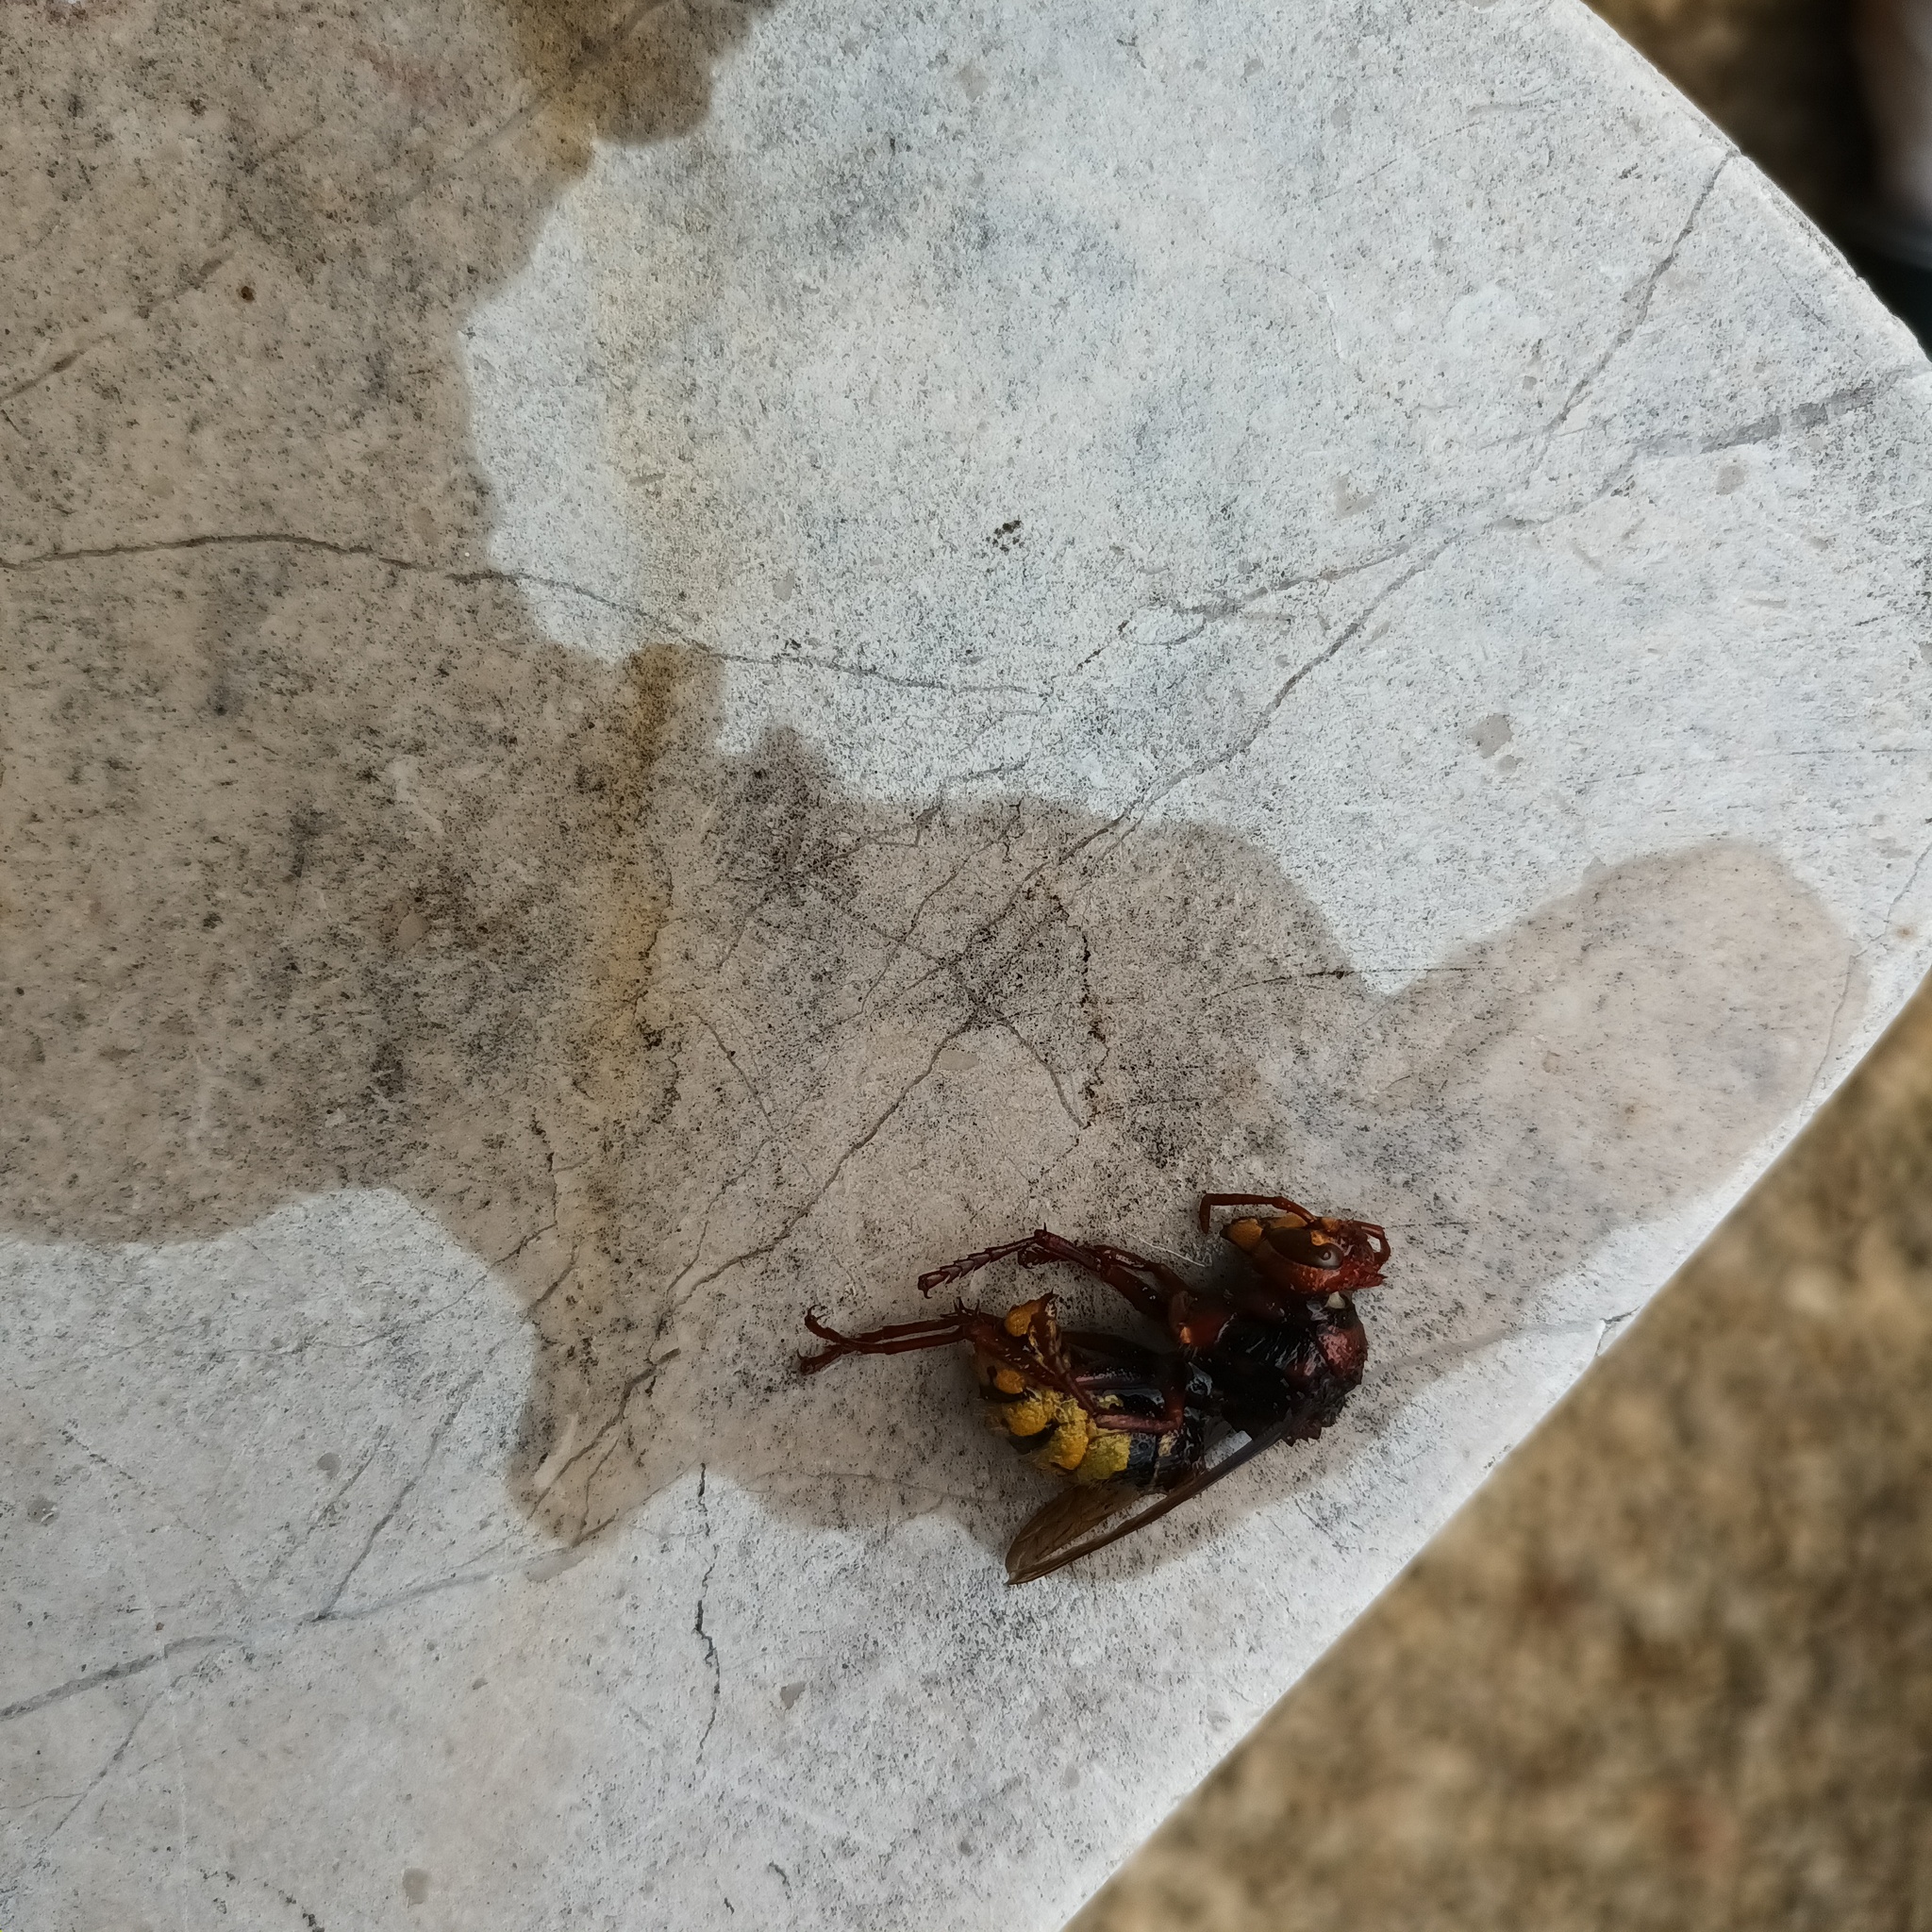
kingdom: Animalia
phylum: Arthropoda
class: Insecta
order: Hymenoptera
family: Vespidae
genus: Vespa
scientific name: Vespa crabro
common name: Hornet
